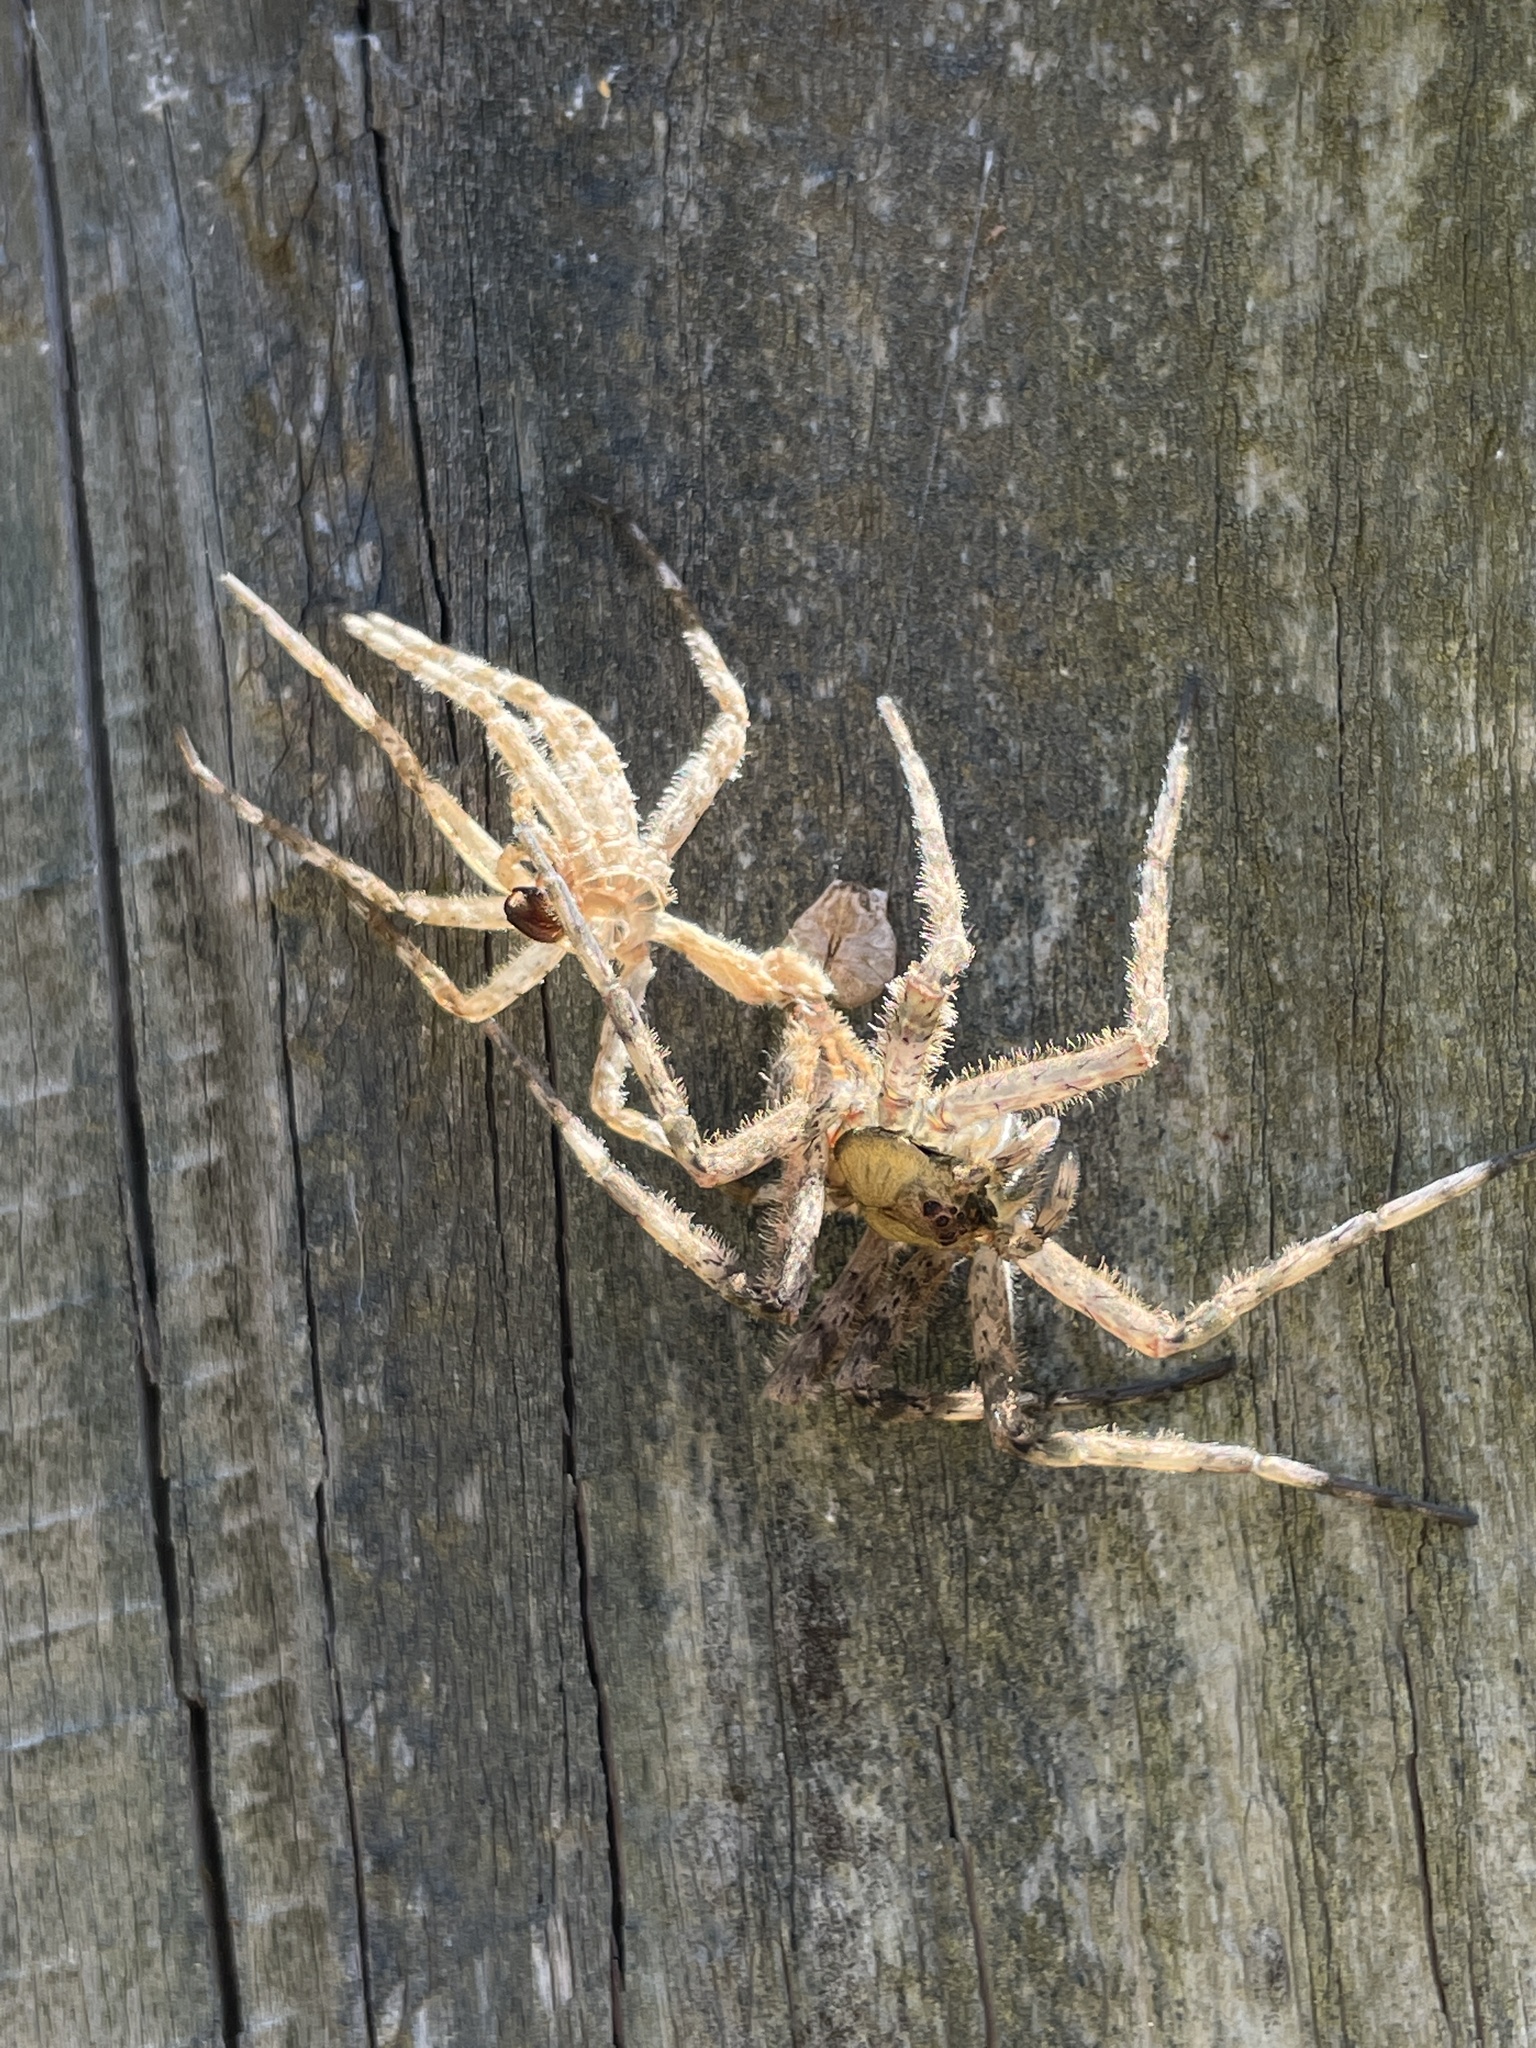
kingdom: Animalia
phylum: Arthropoda
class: Arachnida
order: Araneae
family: Pisauridae
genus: Dolomedes
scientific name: Dolomedes albineus
